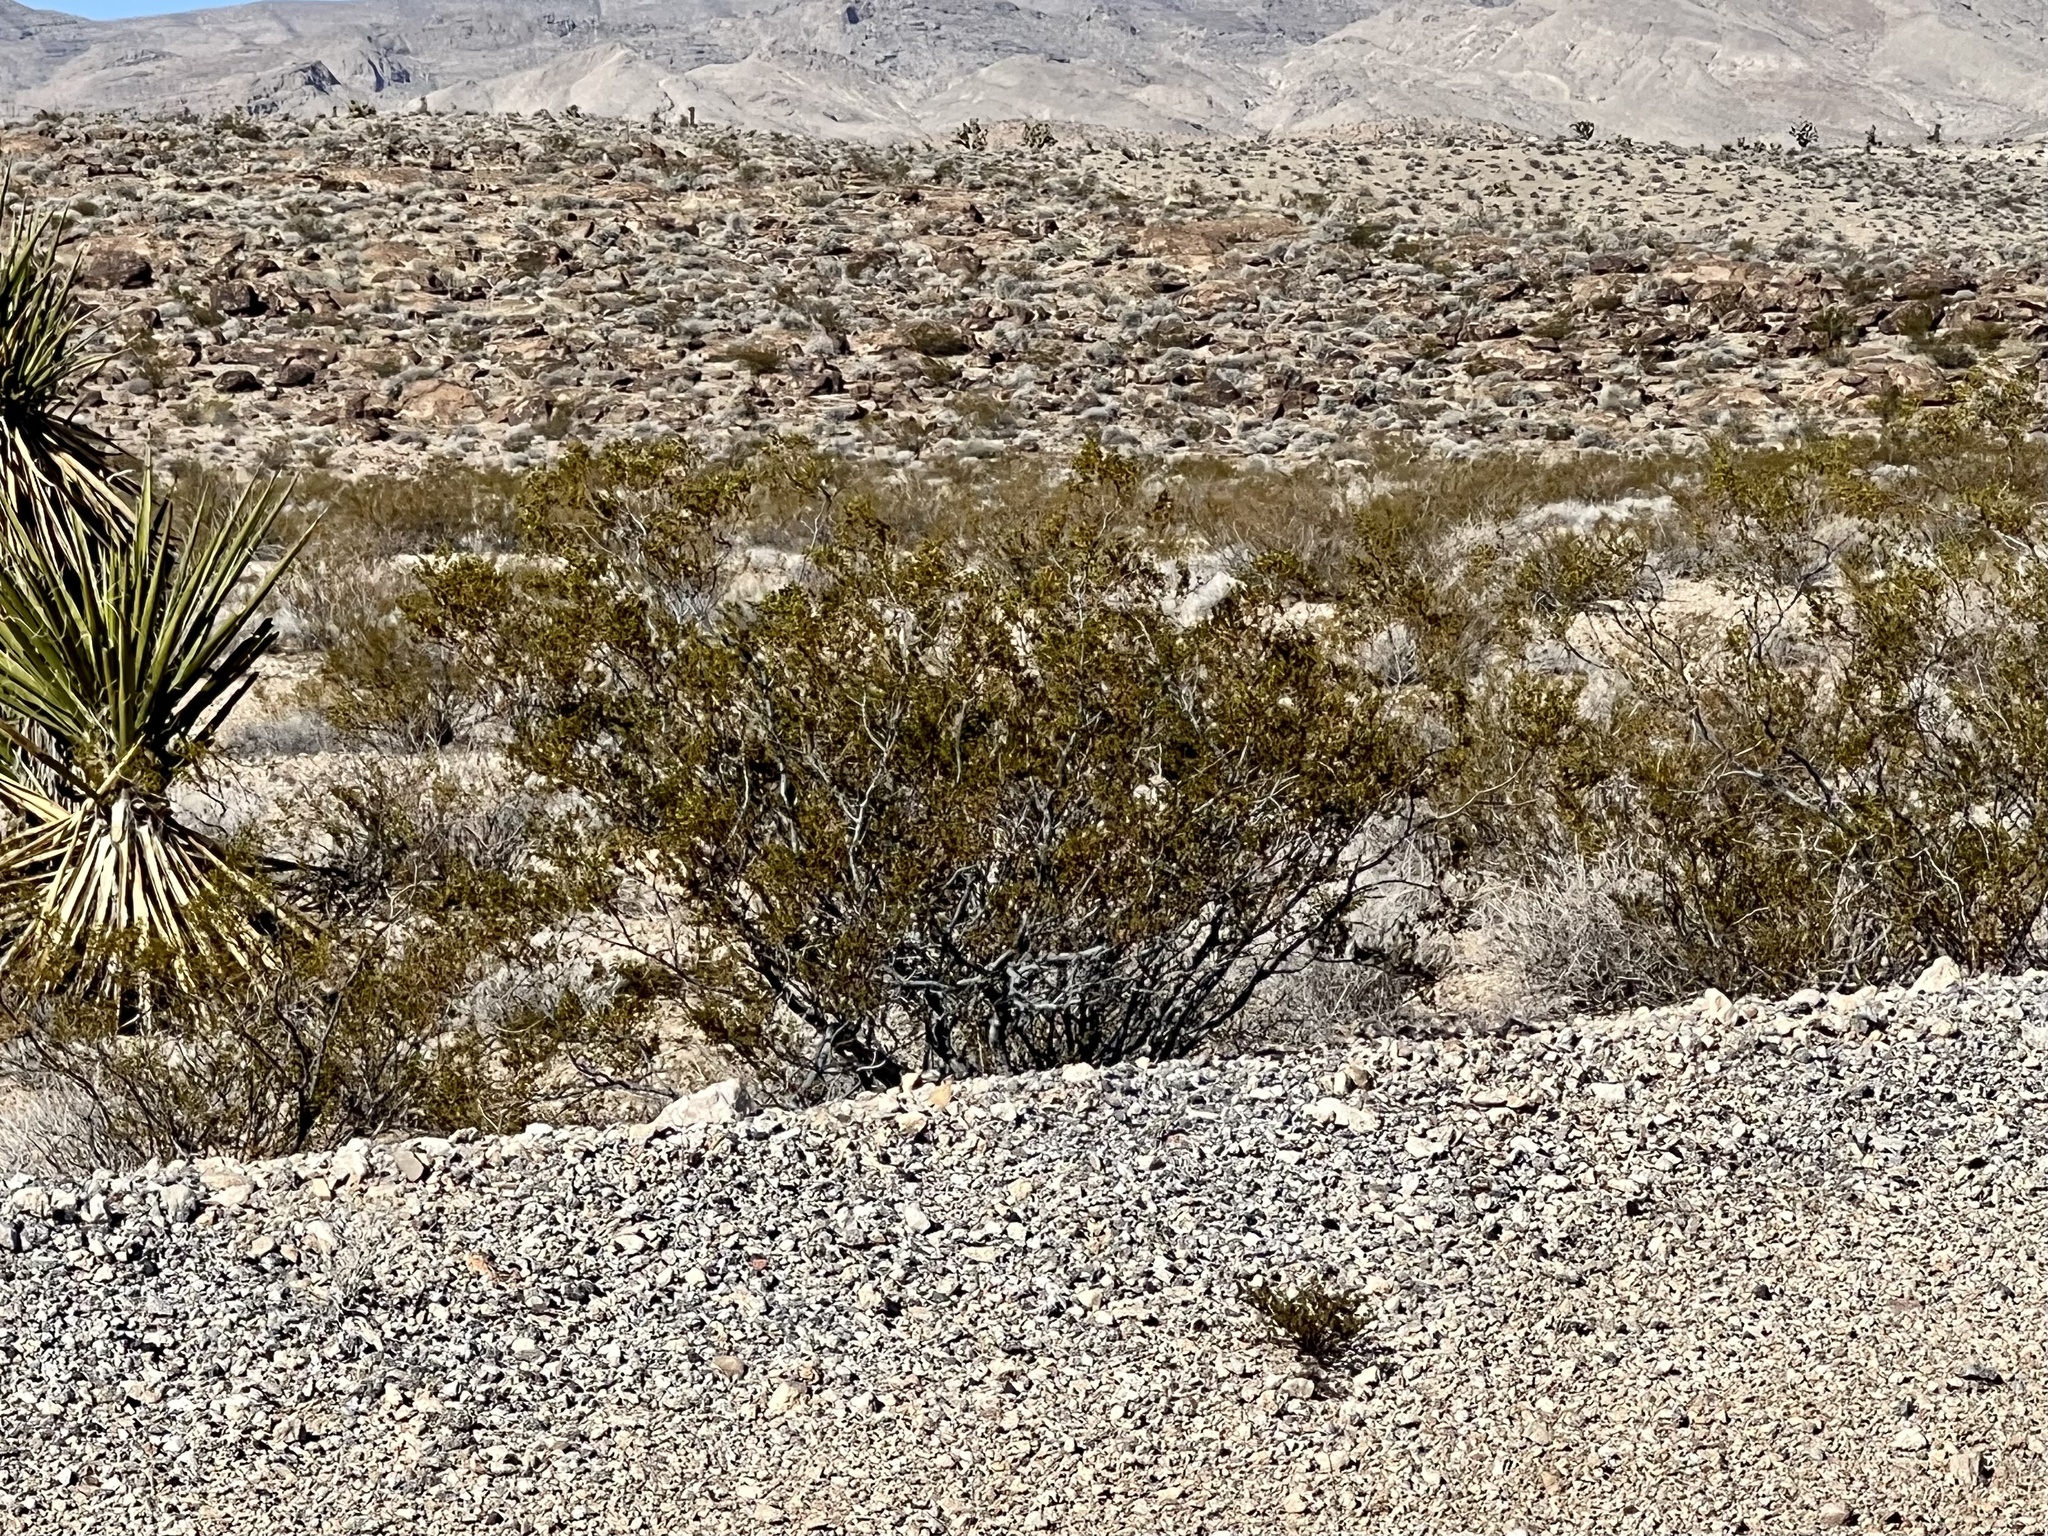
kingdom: Plantae
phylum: Tracheophyta
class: Magnoliopsida
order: Zygophyllales
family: Zygophyllaceae
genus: Larrea
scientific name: Larrea tridentata
